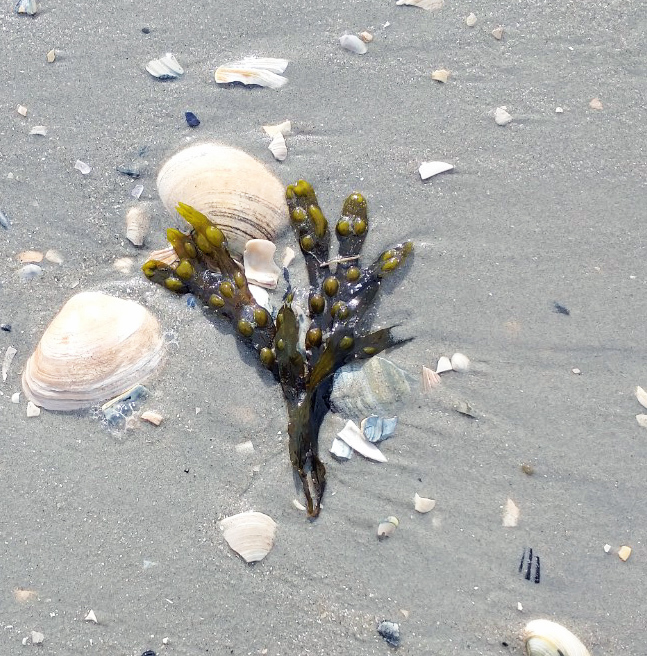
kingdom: Chromista
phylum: Ochrophyta
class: Phaeophyceae
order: Fucales
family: Fucaceae
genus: Fucus
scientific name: Fucus vesiculosus
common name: Bladder wrack
